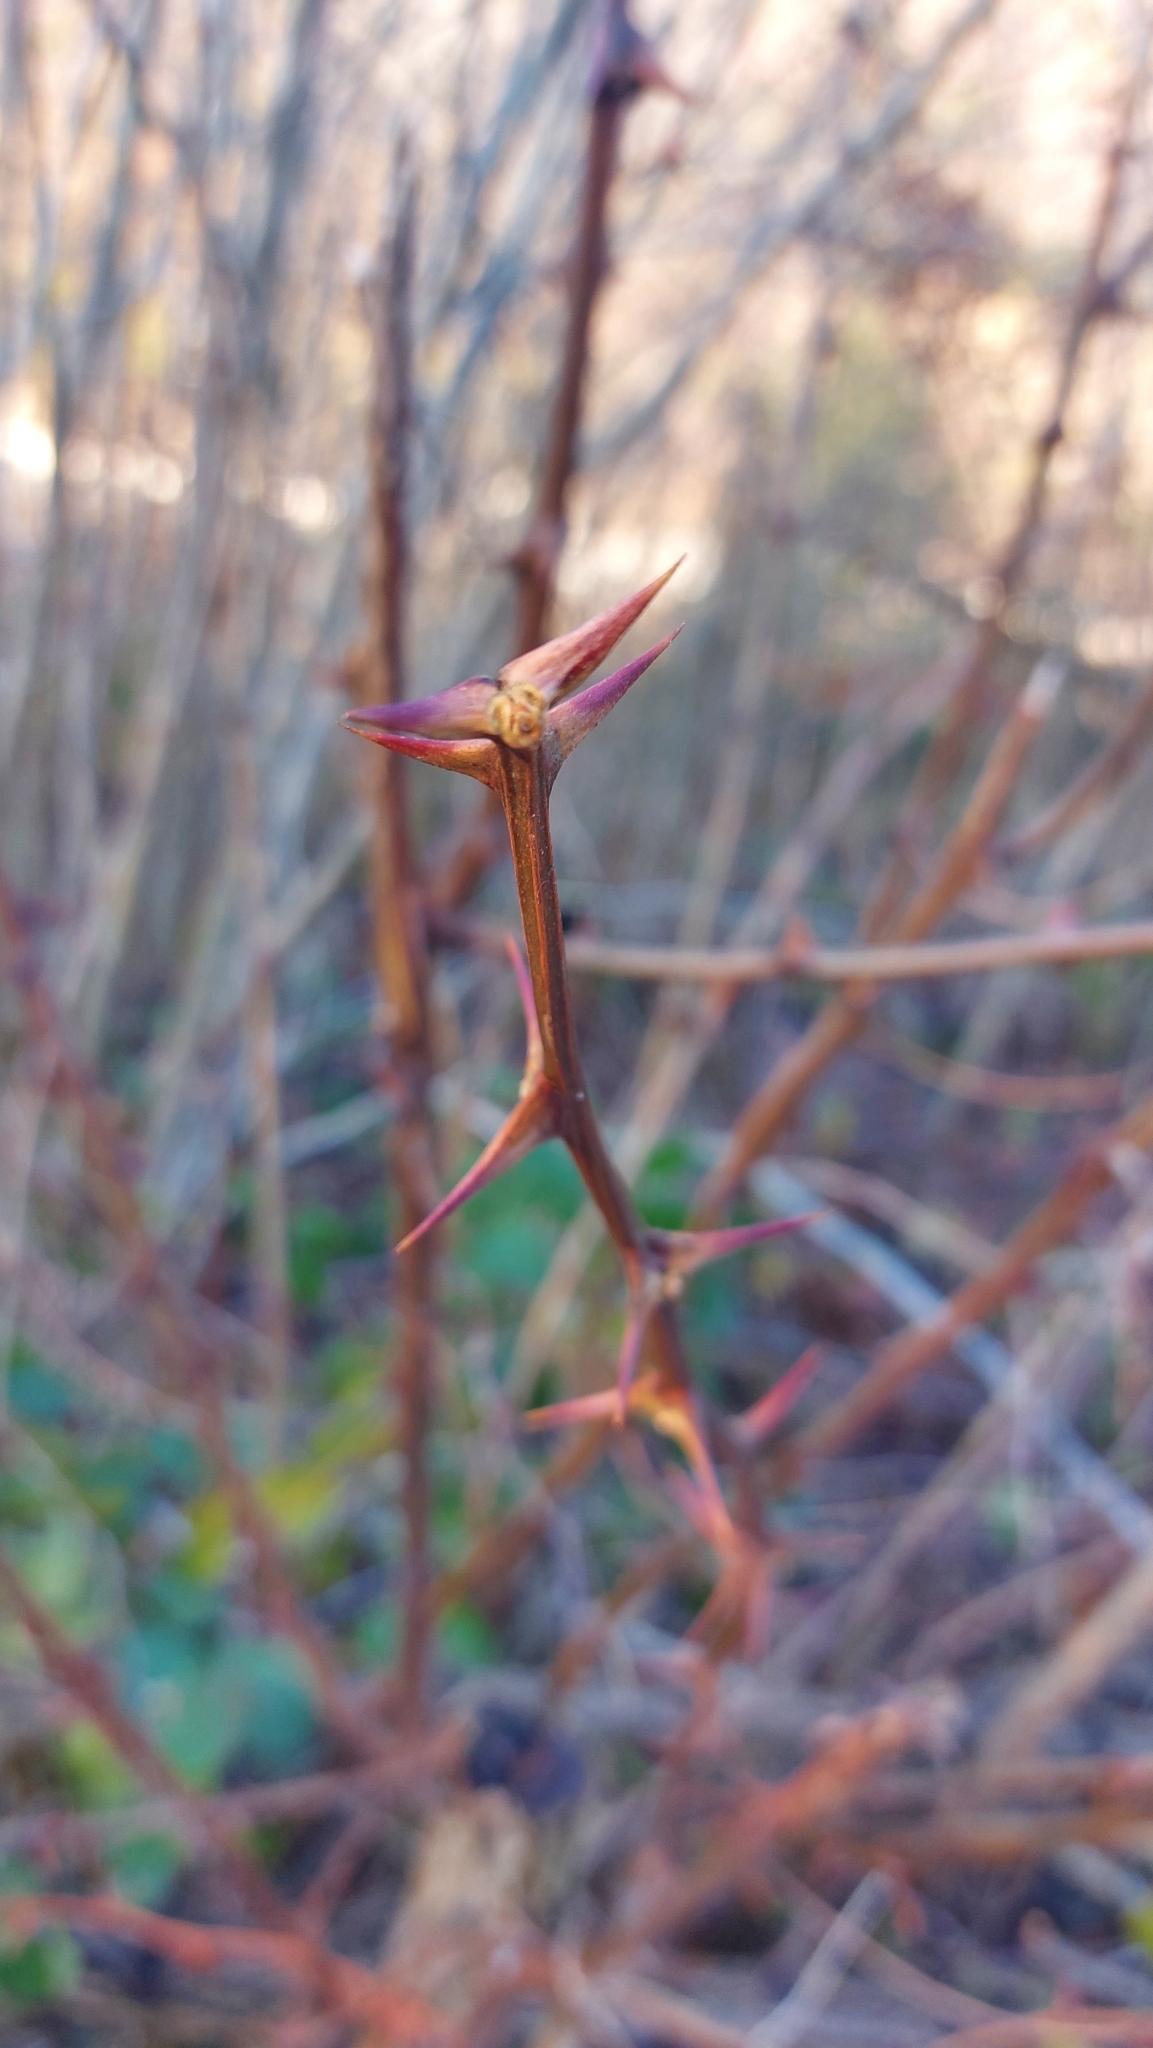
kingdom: Plantae
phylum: Tracheophyta
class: Magnoliopsida
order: Fabales
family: Fabaceae
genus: Robinia
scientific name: Robinia pseudoacacia
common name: Black locust
